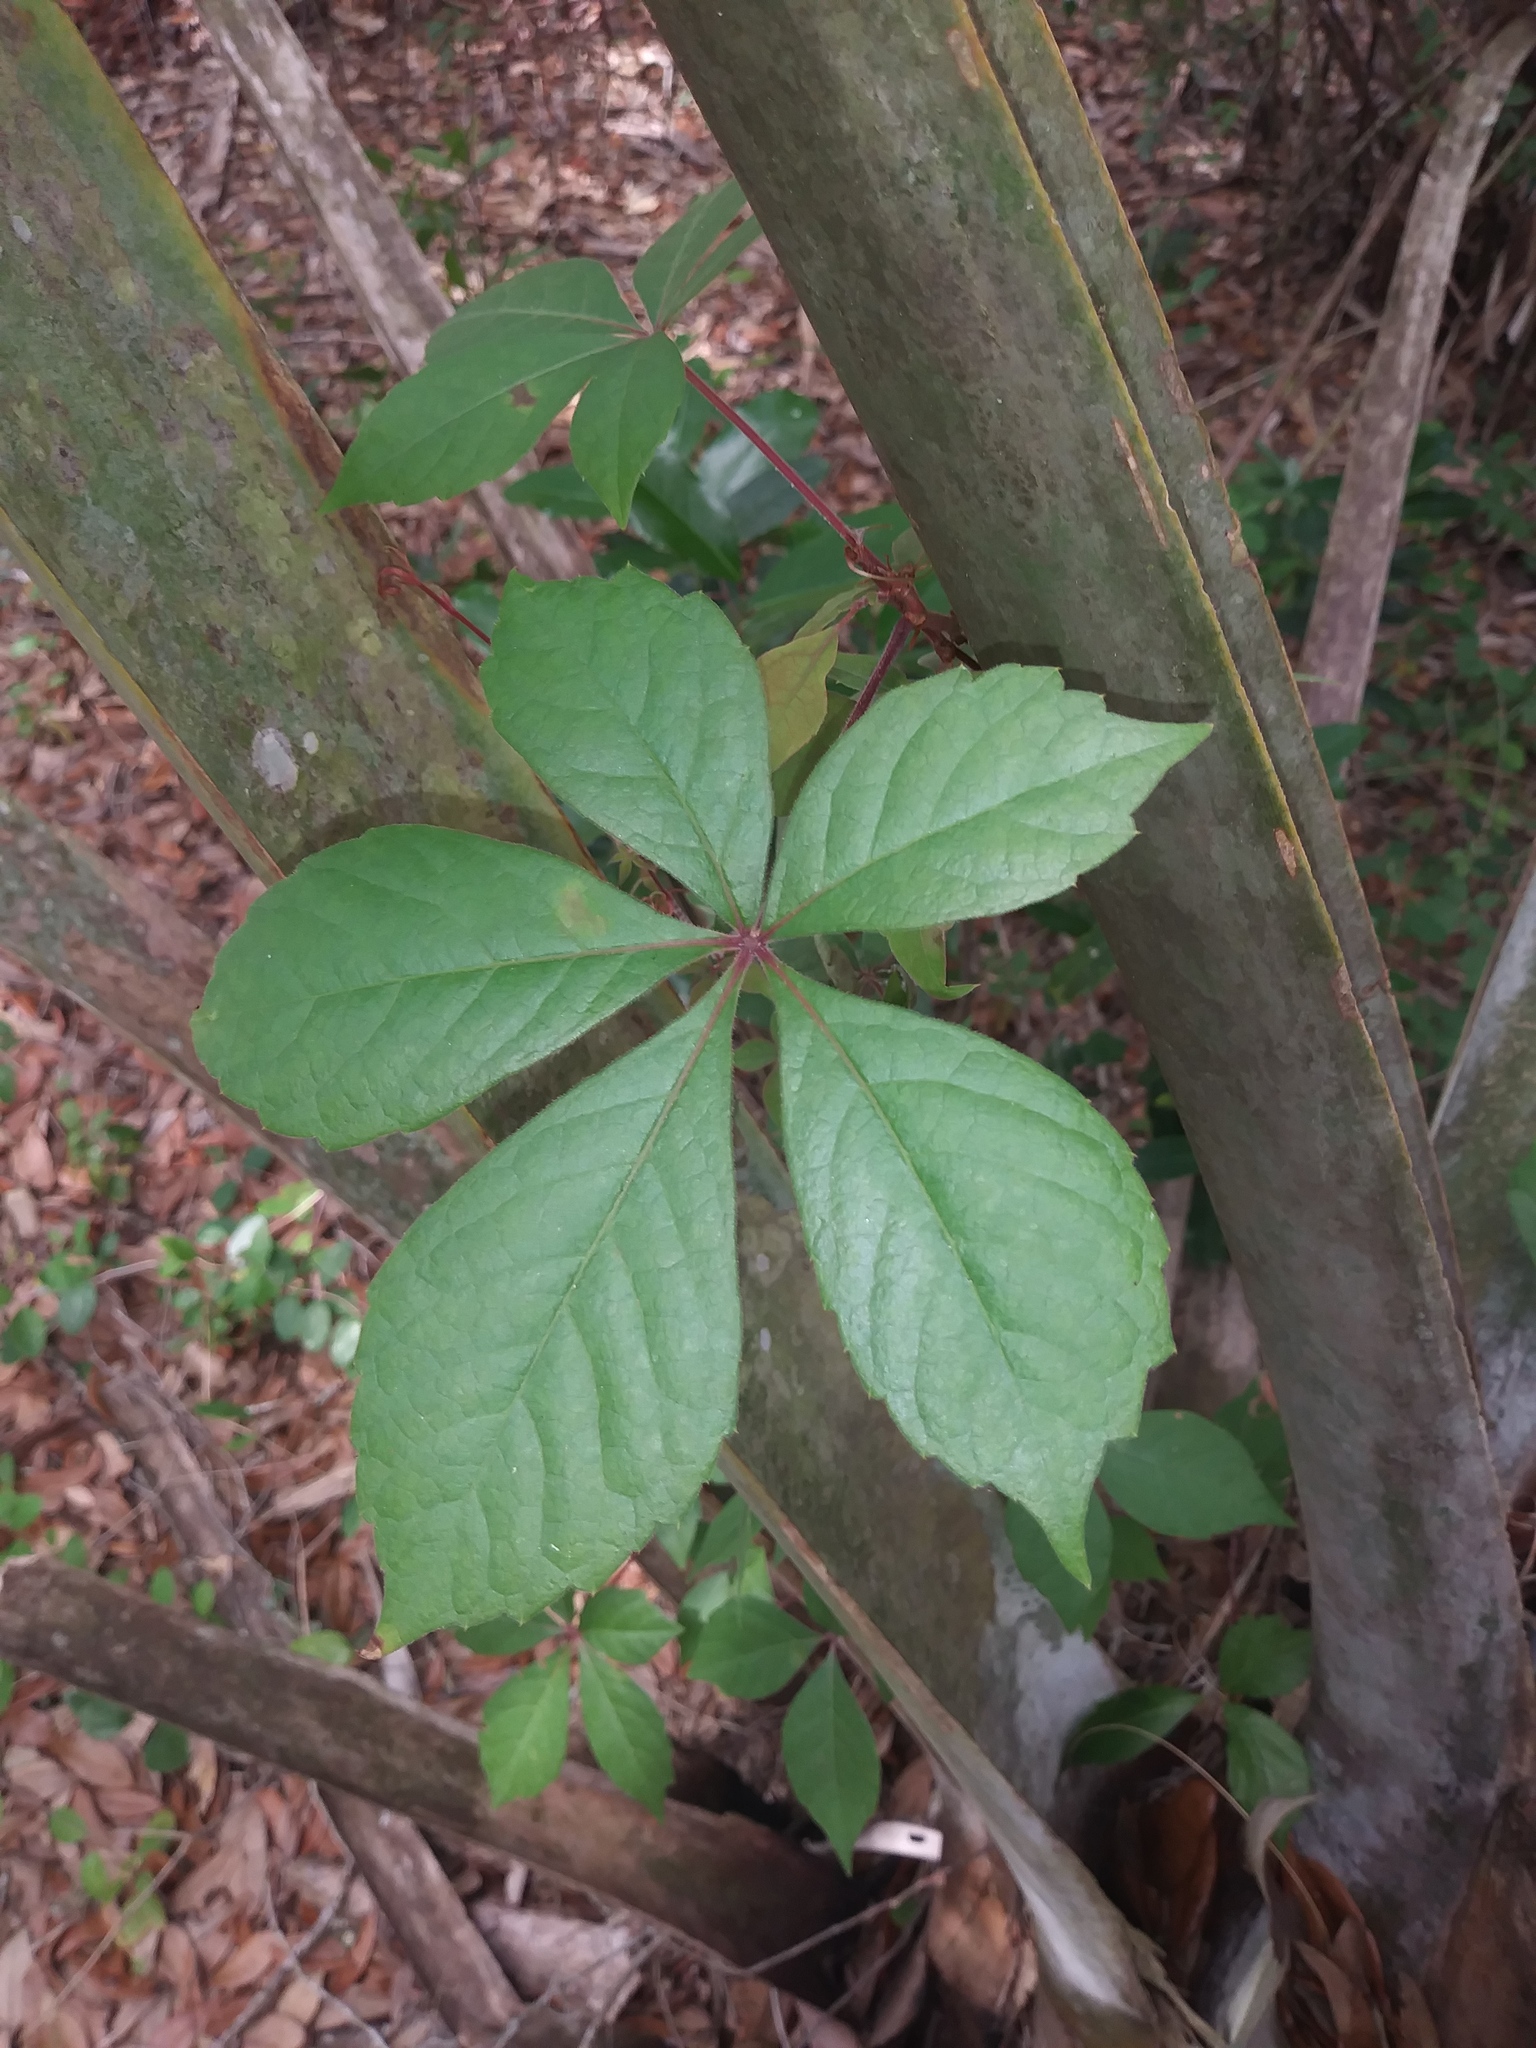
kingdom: Plantae
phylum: Tracheophyta
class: Magnoliopsida
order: Vitales
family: Vitaceae
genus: Parthenocissus
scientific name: Parthenocissus quinquefolia
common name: Virginia-creeper
